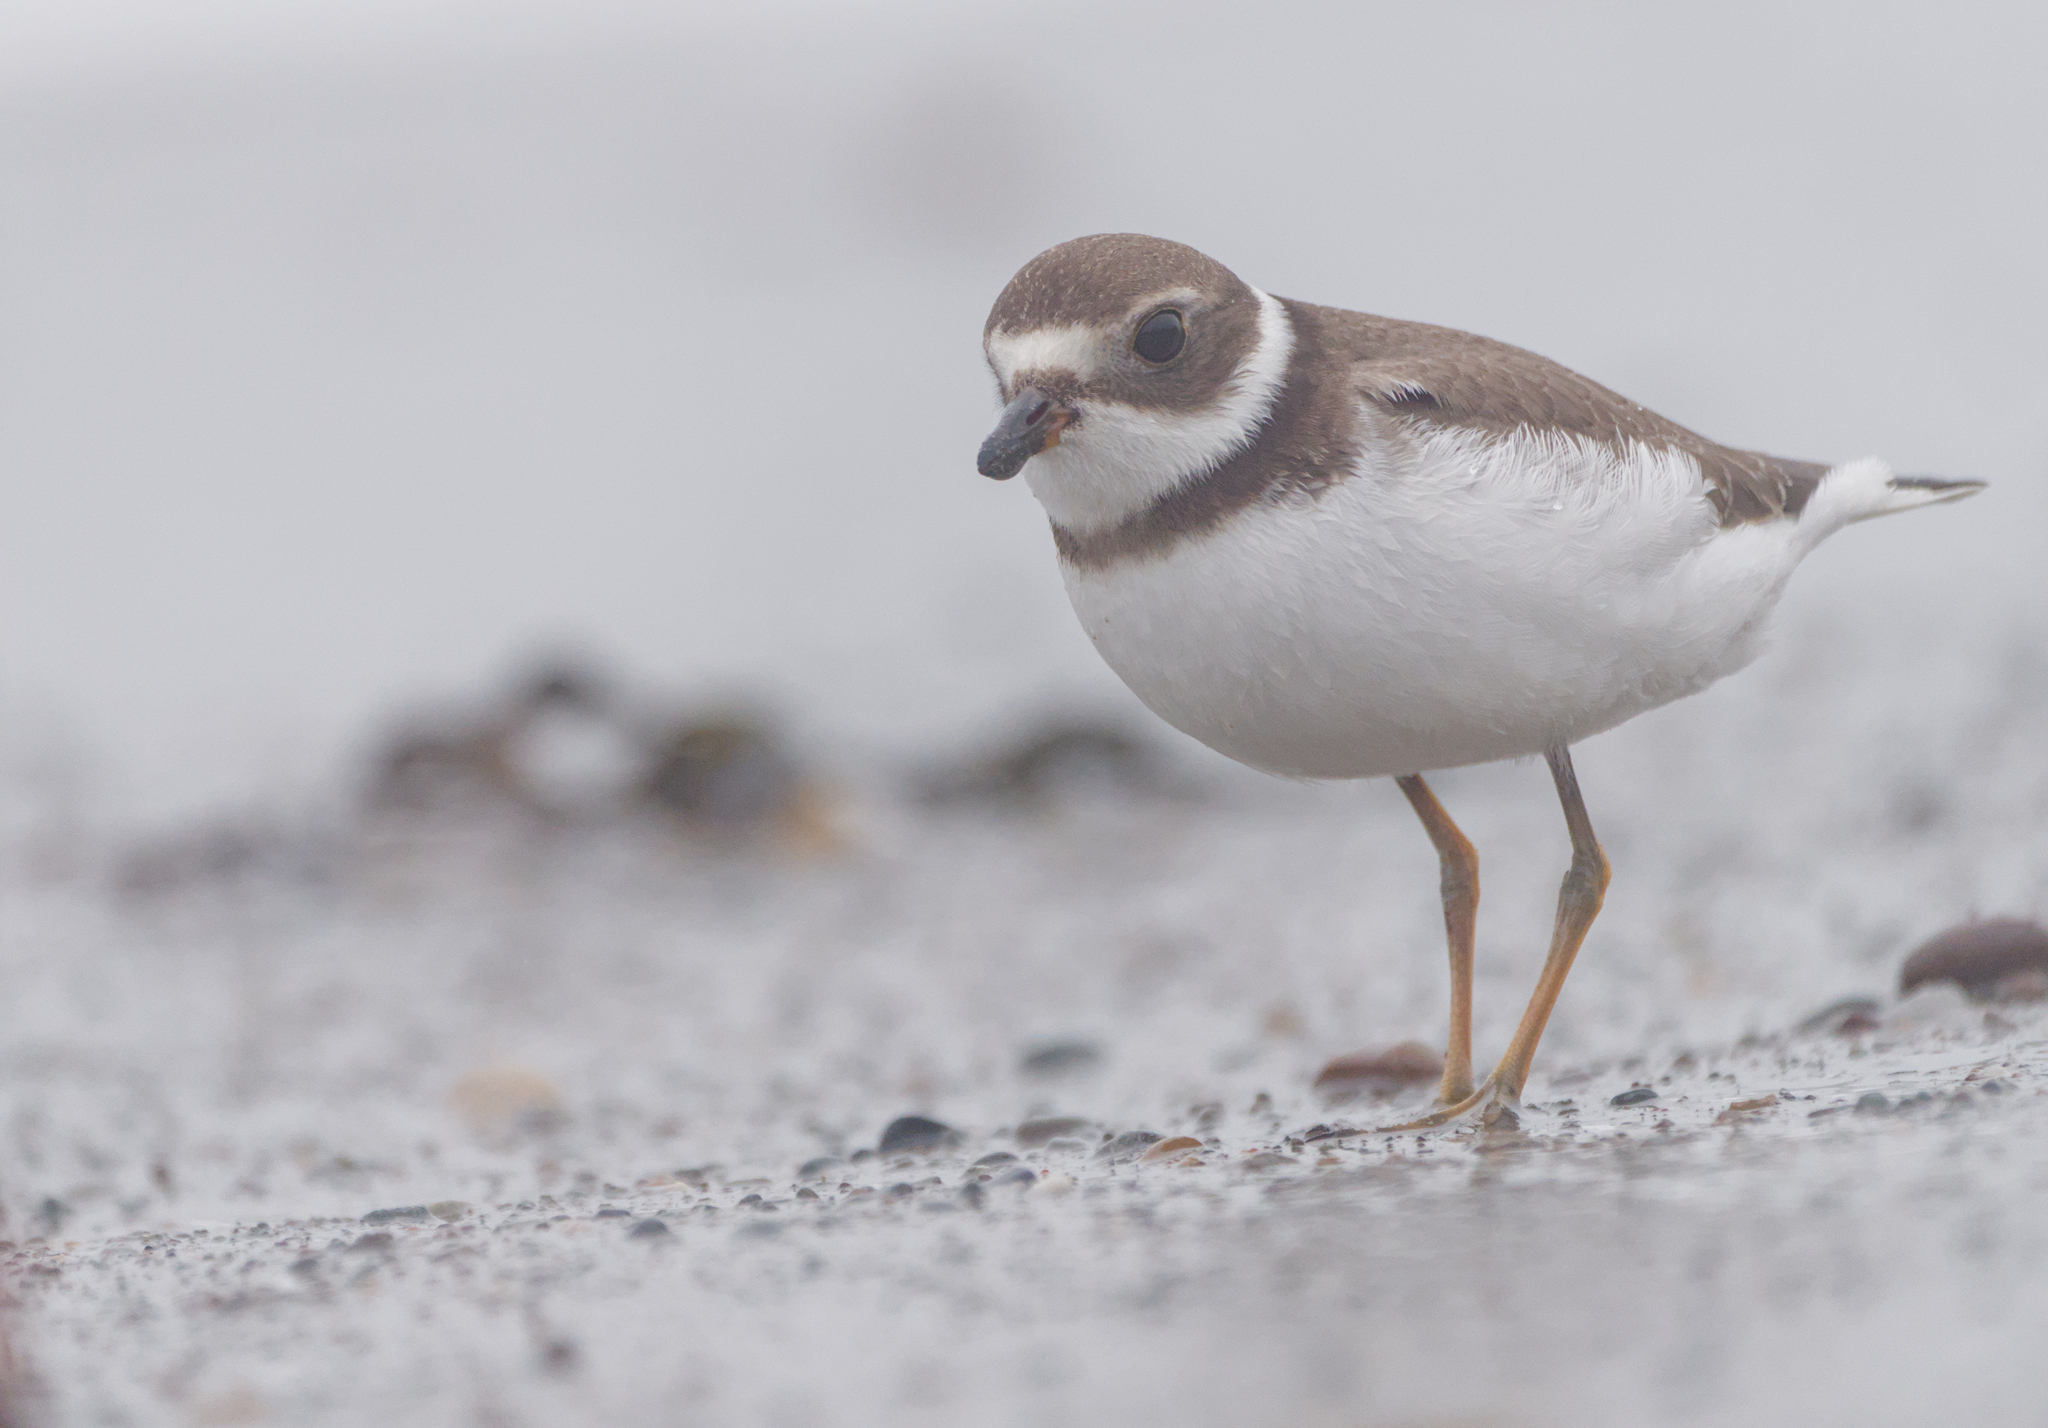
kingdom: Animalia
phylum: Chordata
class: Aves
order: Charadriiformes
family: Charadriidae
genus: Charadrius
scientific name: Charadrius semipalmatus
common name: Semipalmated plover
